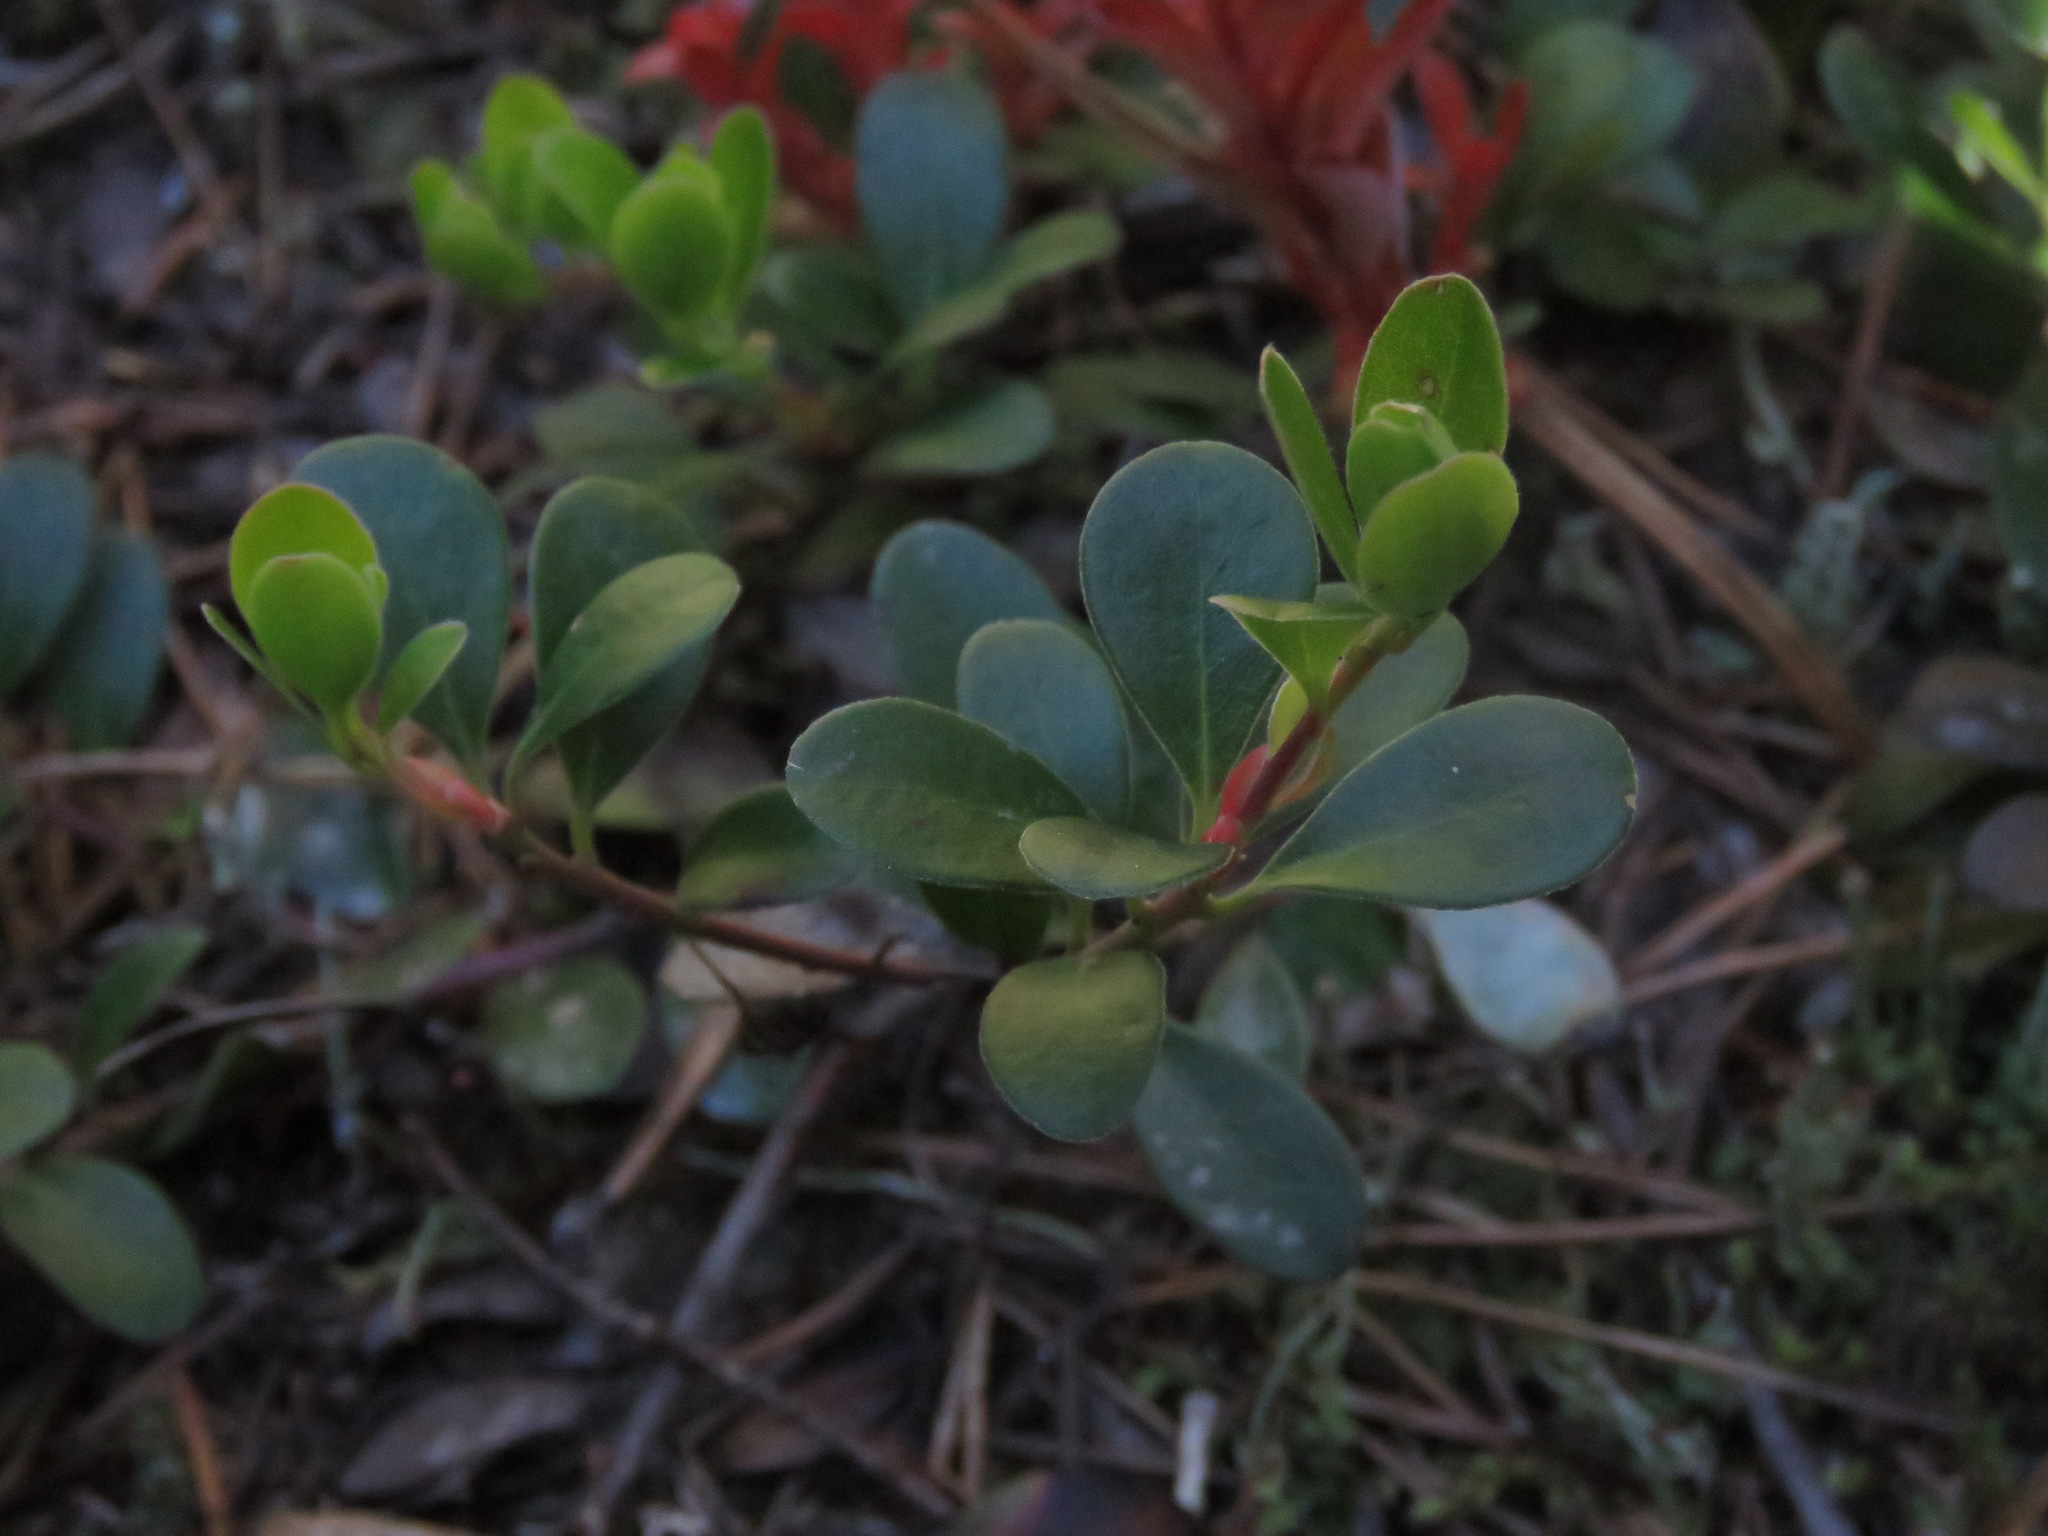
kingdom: Plantae
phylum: Tracheophyta
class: Magnoliopsida
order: Ericales
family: Ericaceae
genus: Arctostaphylos
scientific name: Arctostaphylos uva-ursi
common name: Bearberry
